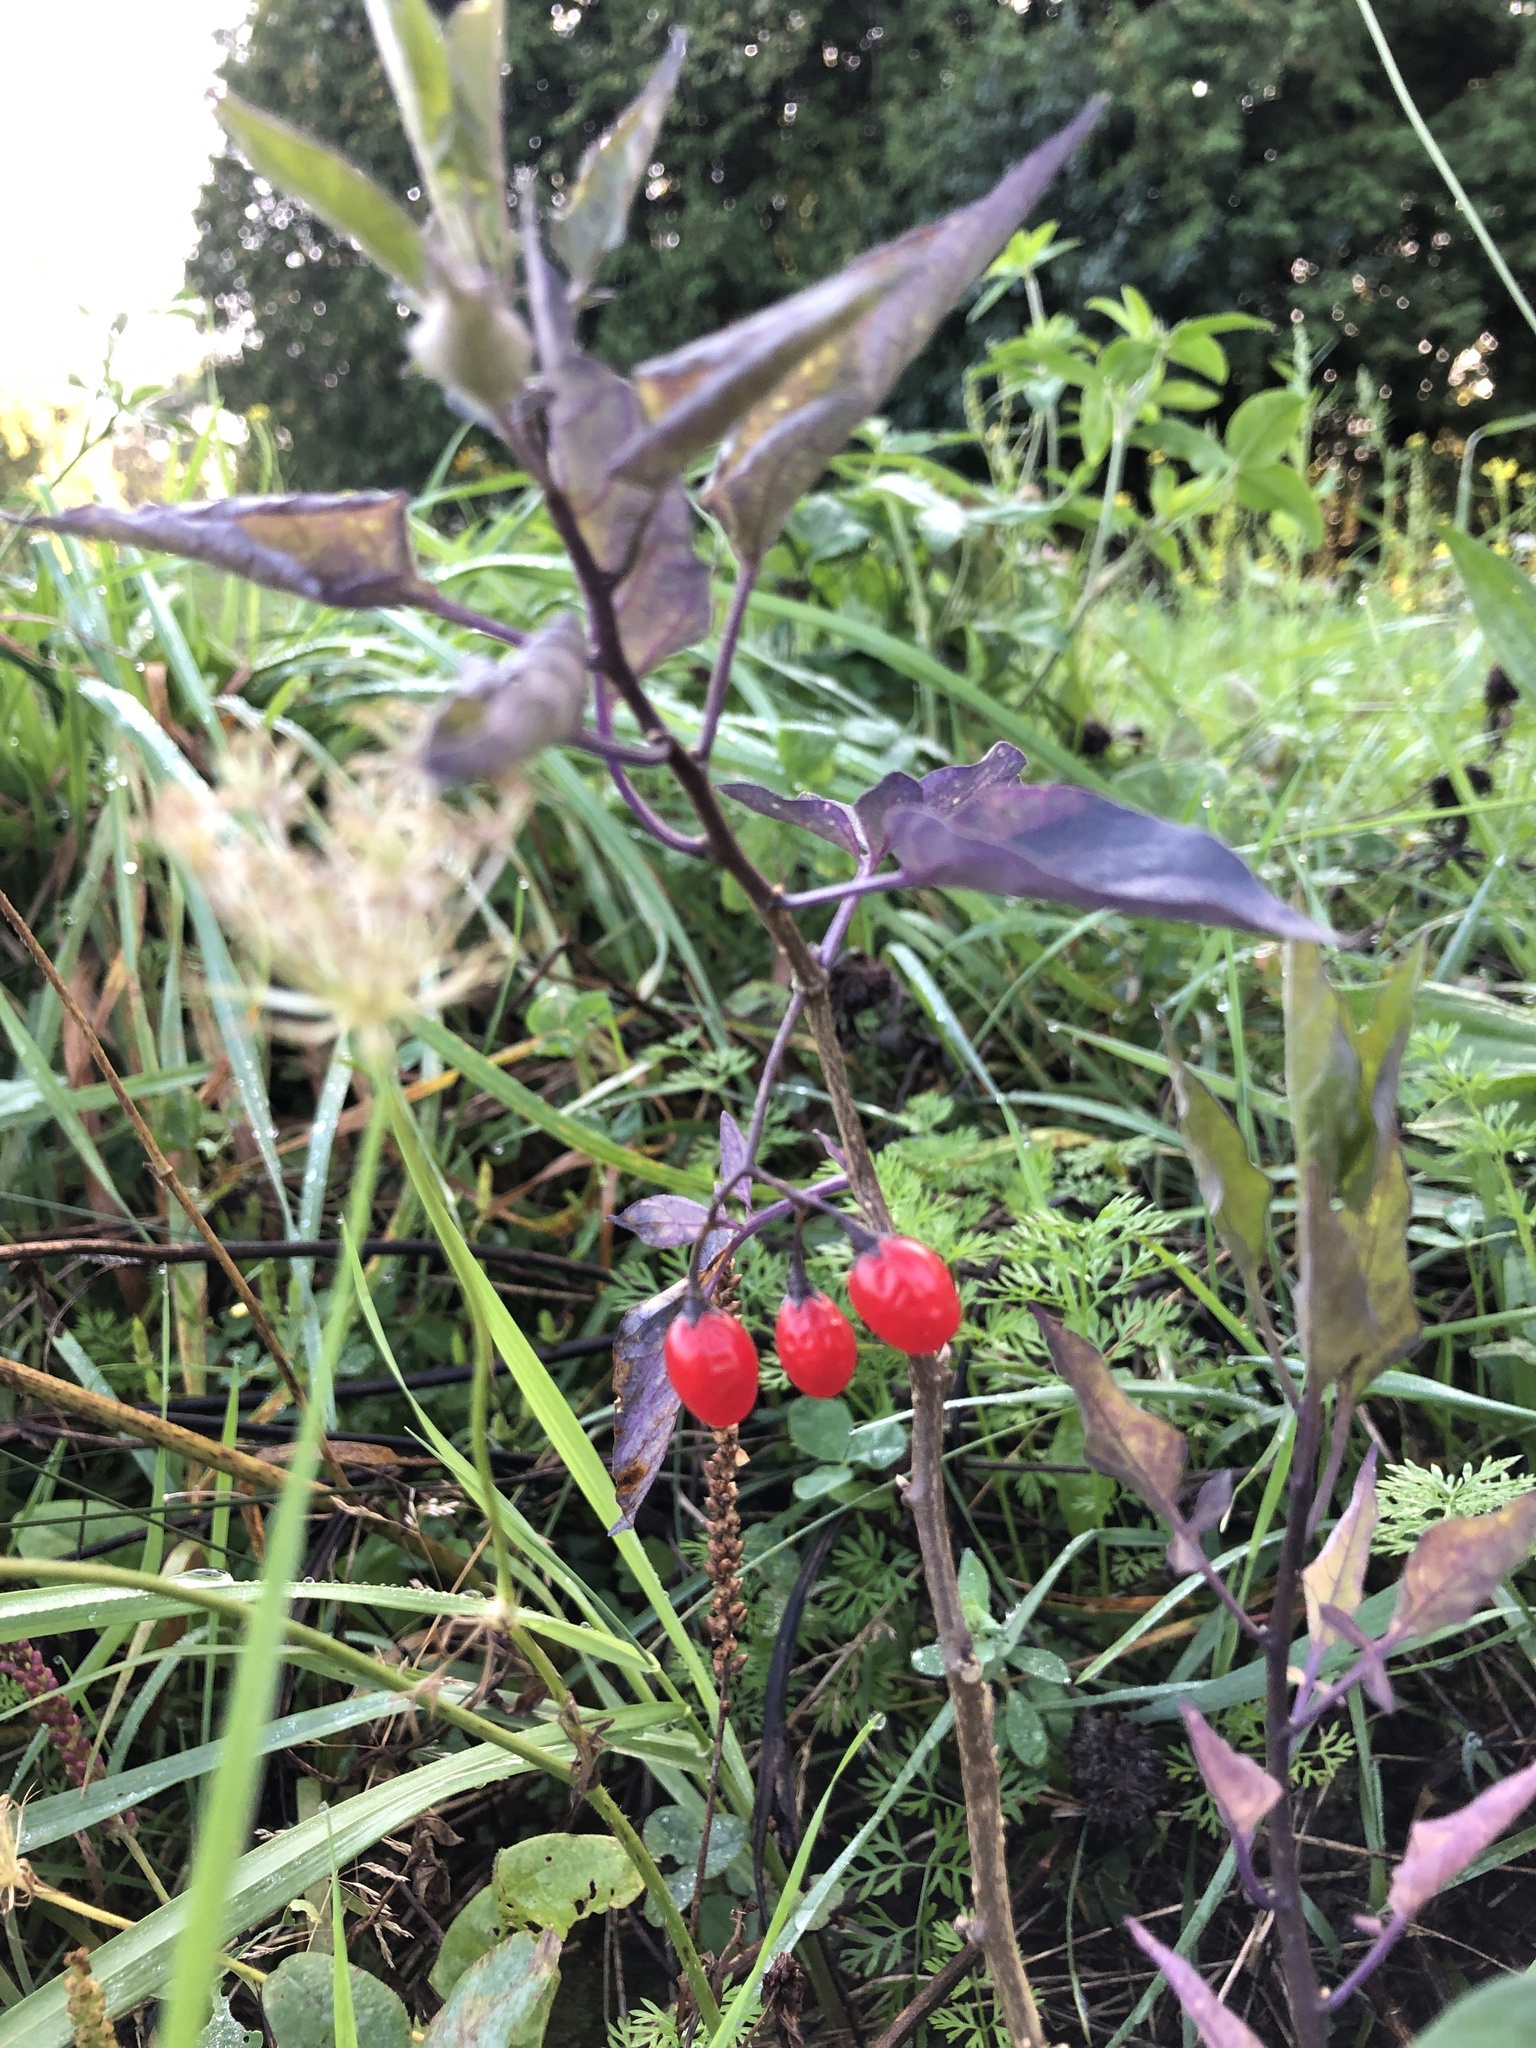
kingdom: Plantae
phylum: Tracheophyta
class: Magnoliopsida
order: Solanales
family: Solanaceae
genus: Solanum
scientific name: Solanum dulcamara
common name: Climbing nightshade
